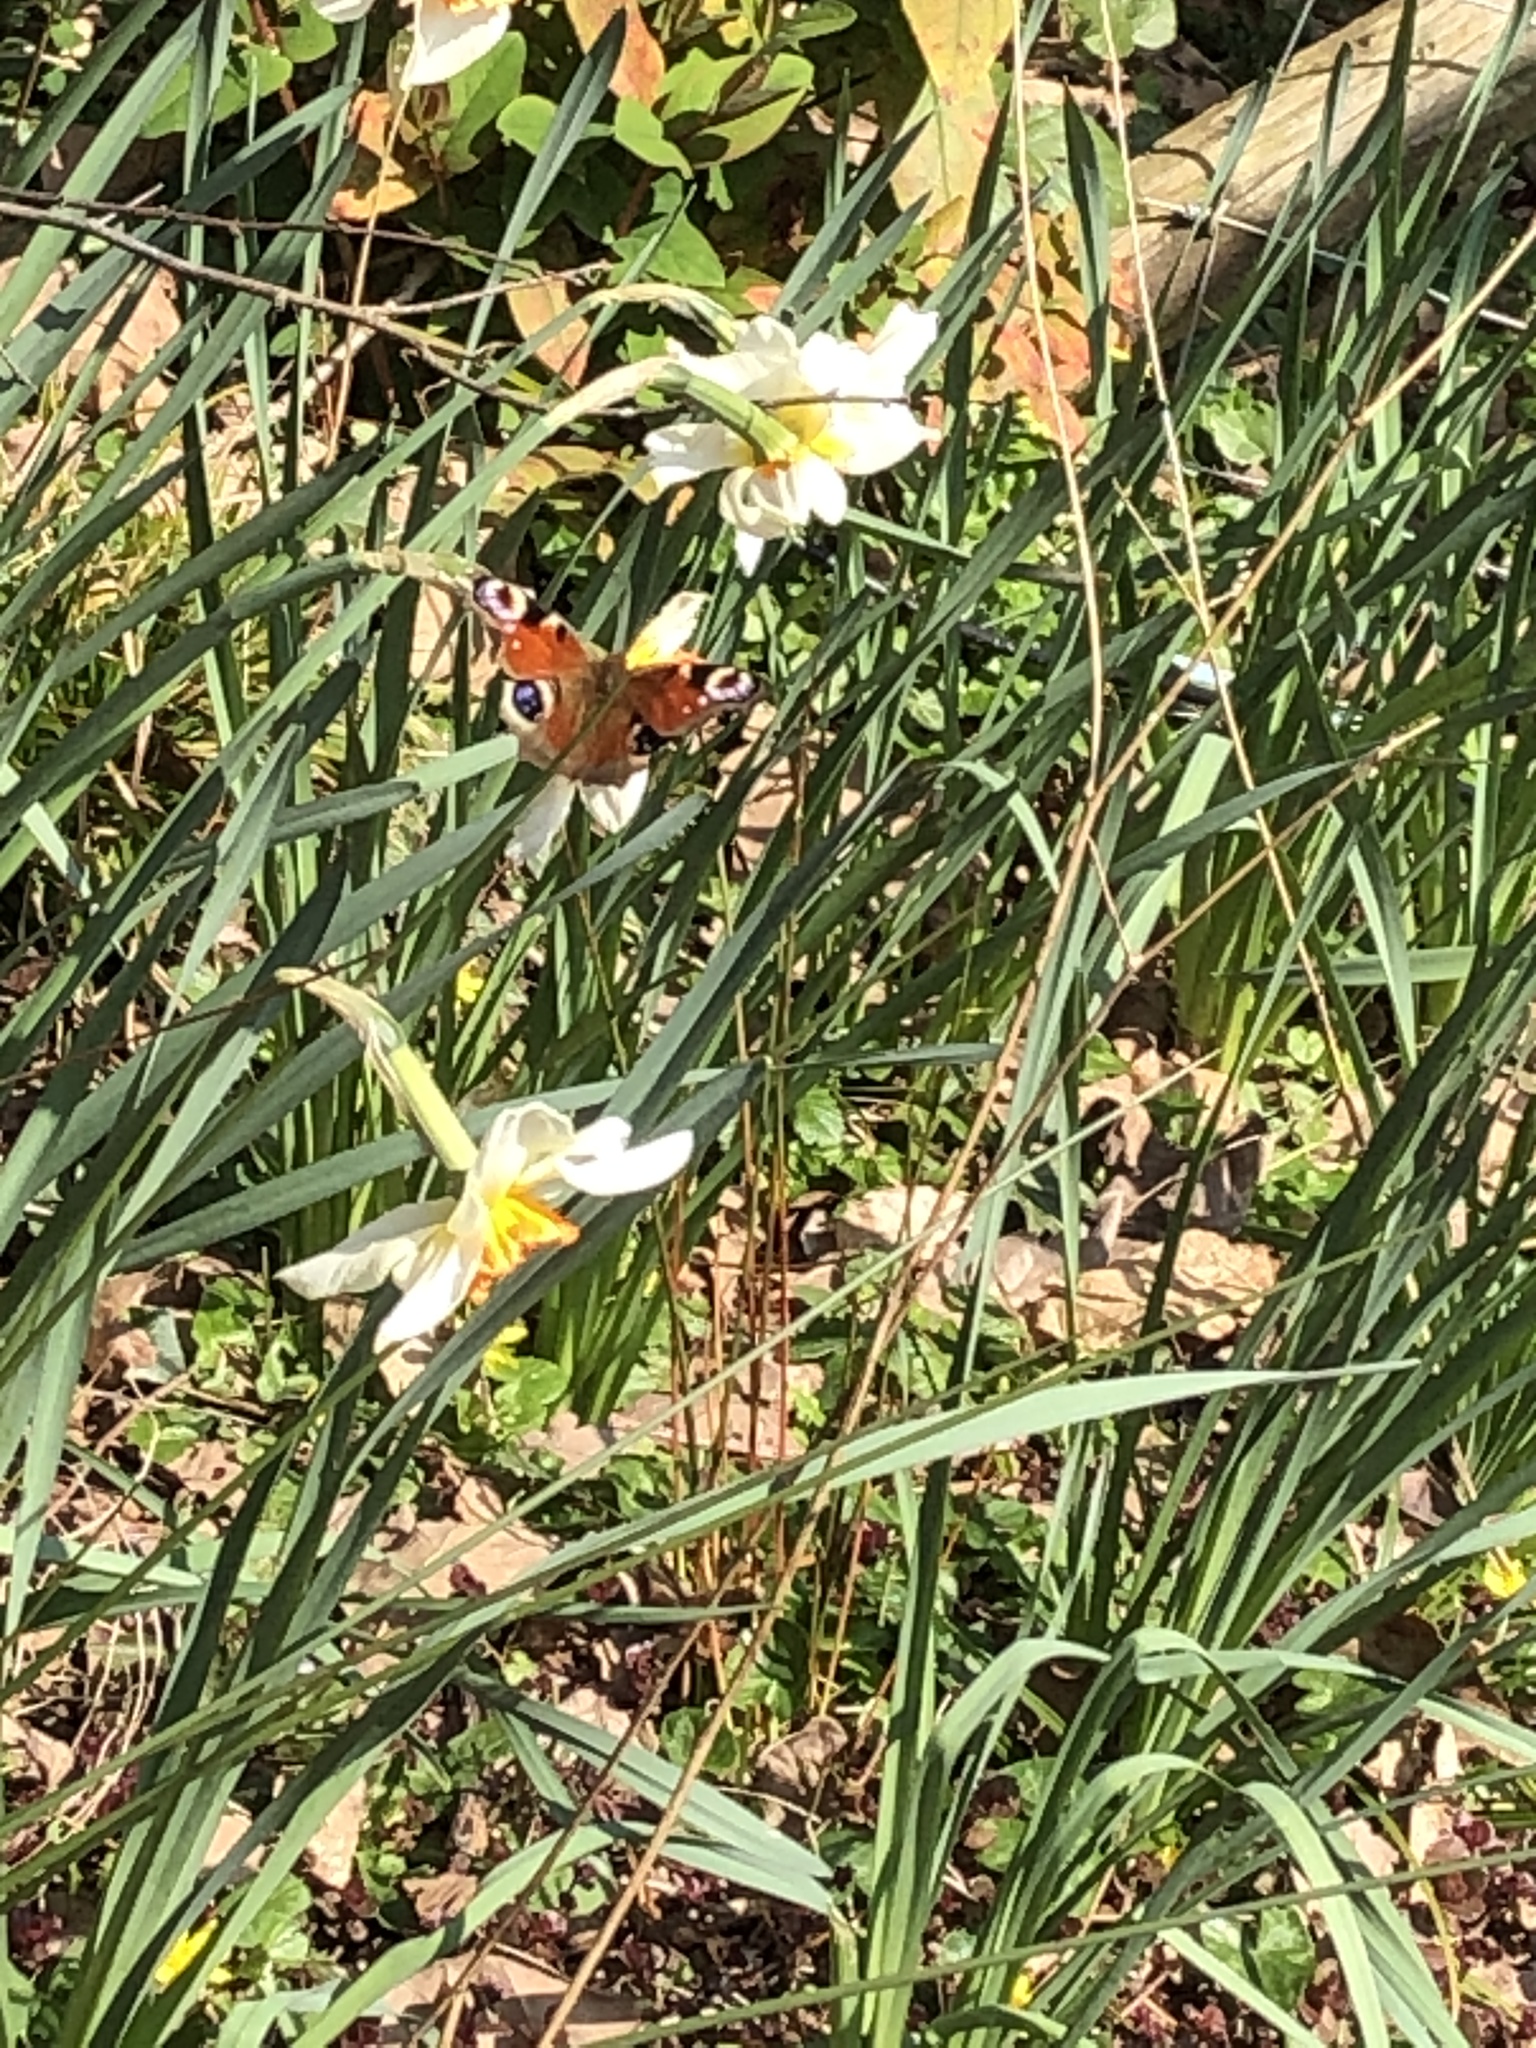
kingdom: Animalia
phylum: Arthropoda
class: Insecta
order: Lepidoptera
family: Nymphalidae
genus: Aglais
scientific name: Aglais io
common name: Peacock
